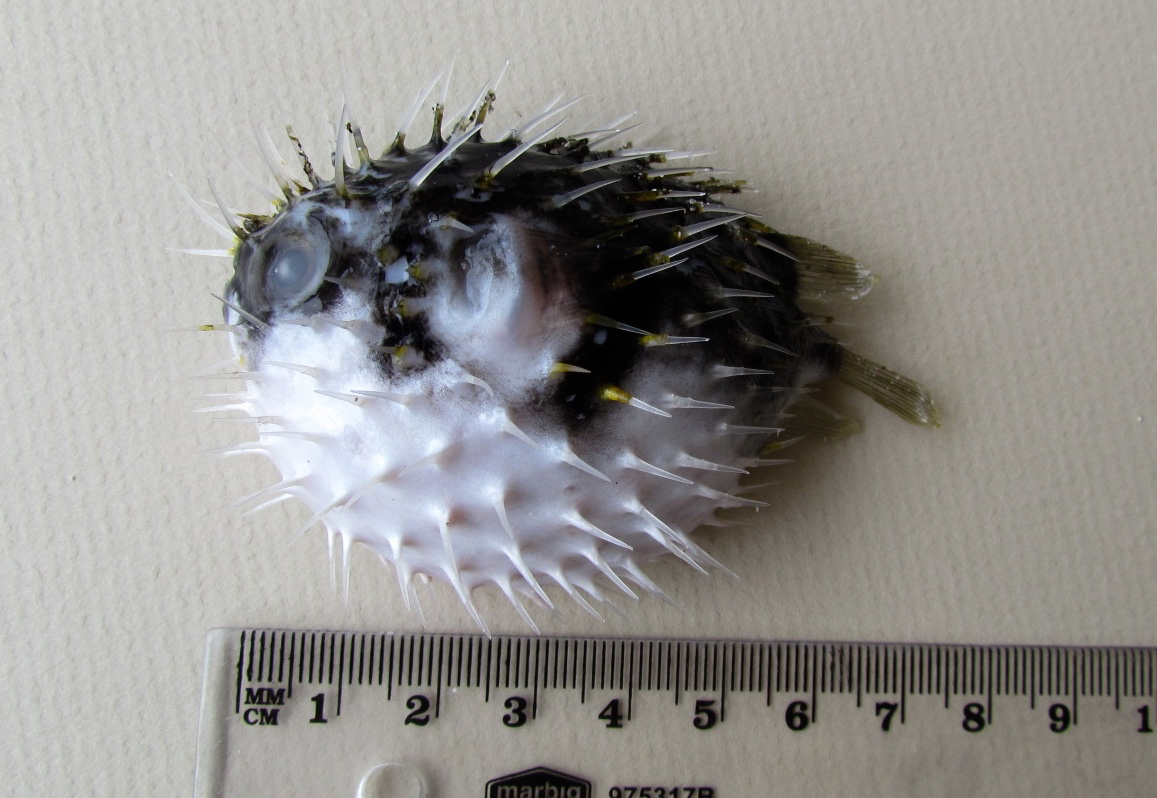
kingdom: Animalia
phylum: Chordata
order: Tetraodontiformes
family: Diodontidae
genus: Diodon
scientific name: Diodon nicthemerus
